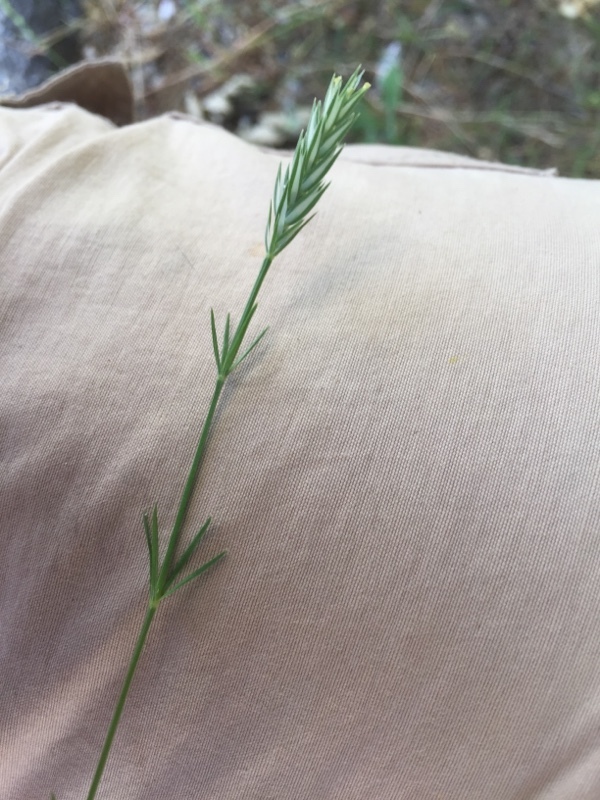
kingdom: Plantae
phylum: Tracheophyta
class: Magnoliopsida
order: Gentianales
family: Rubiaceae
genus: Crucianella
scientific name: Crucianella angustifolia
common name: Narrowleaf crucianella
